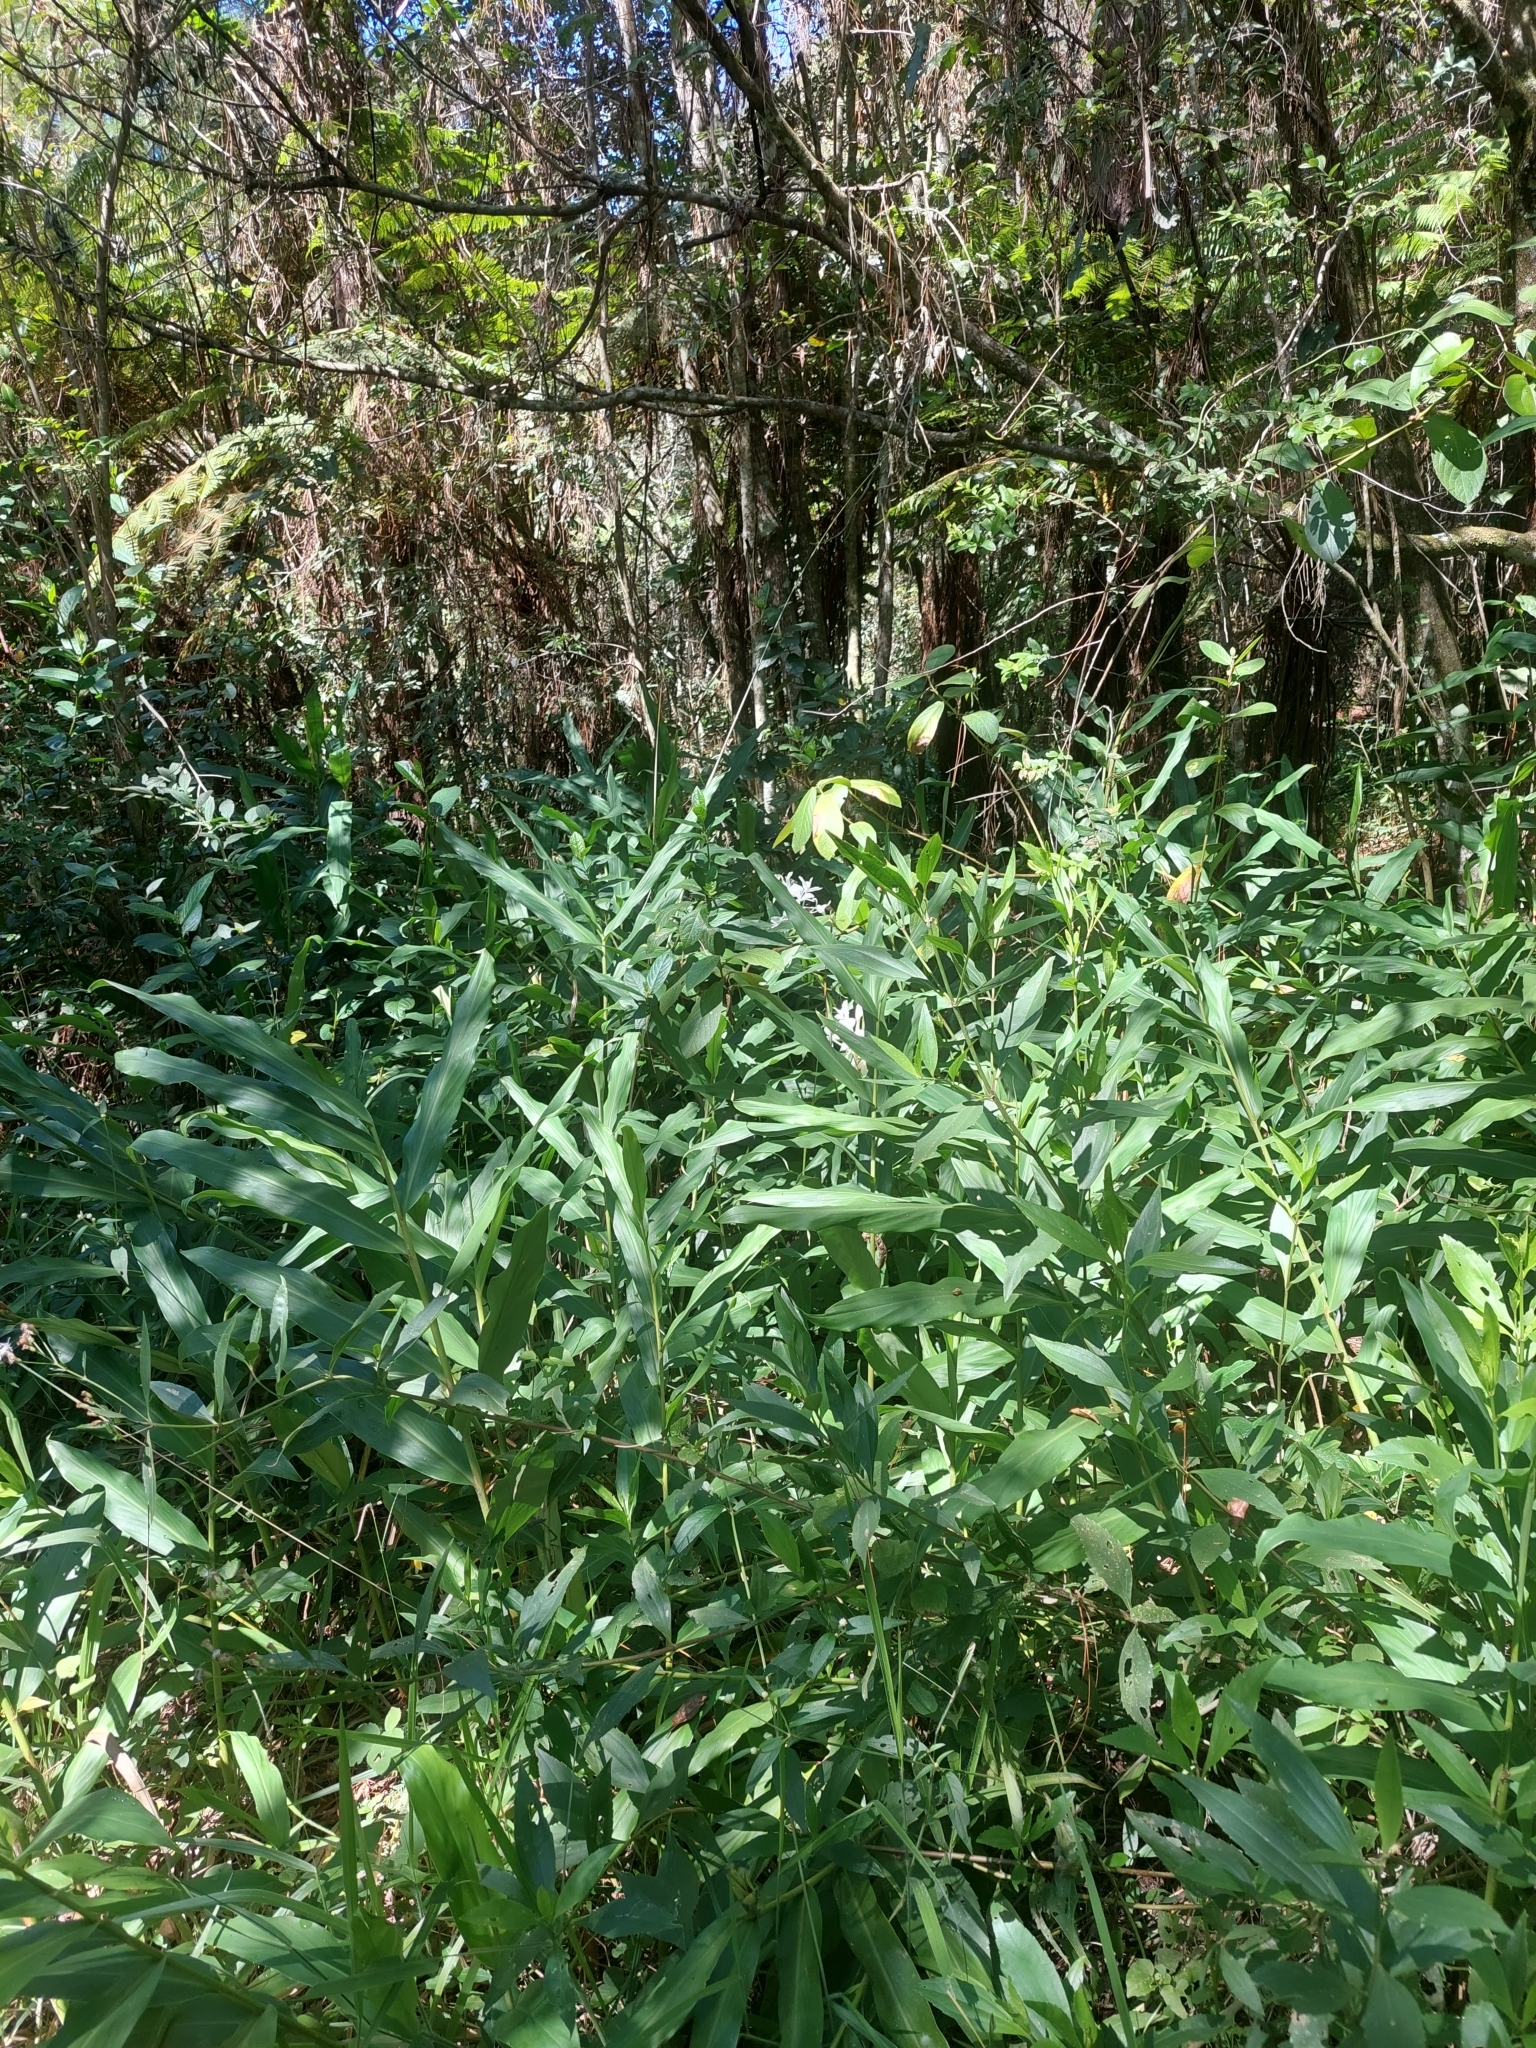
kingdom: Plantae
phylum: Tracheophyta
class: Liliopsida
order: Zingiberales
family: Zingiberaceae
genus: Hedychium
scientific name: Hedychium coronarium
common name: White garland-lily
